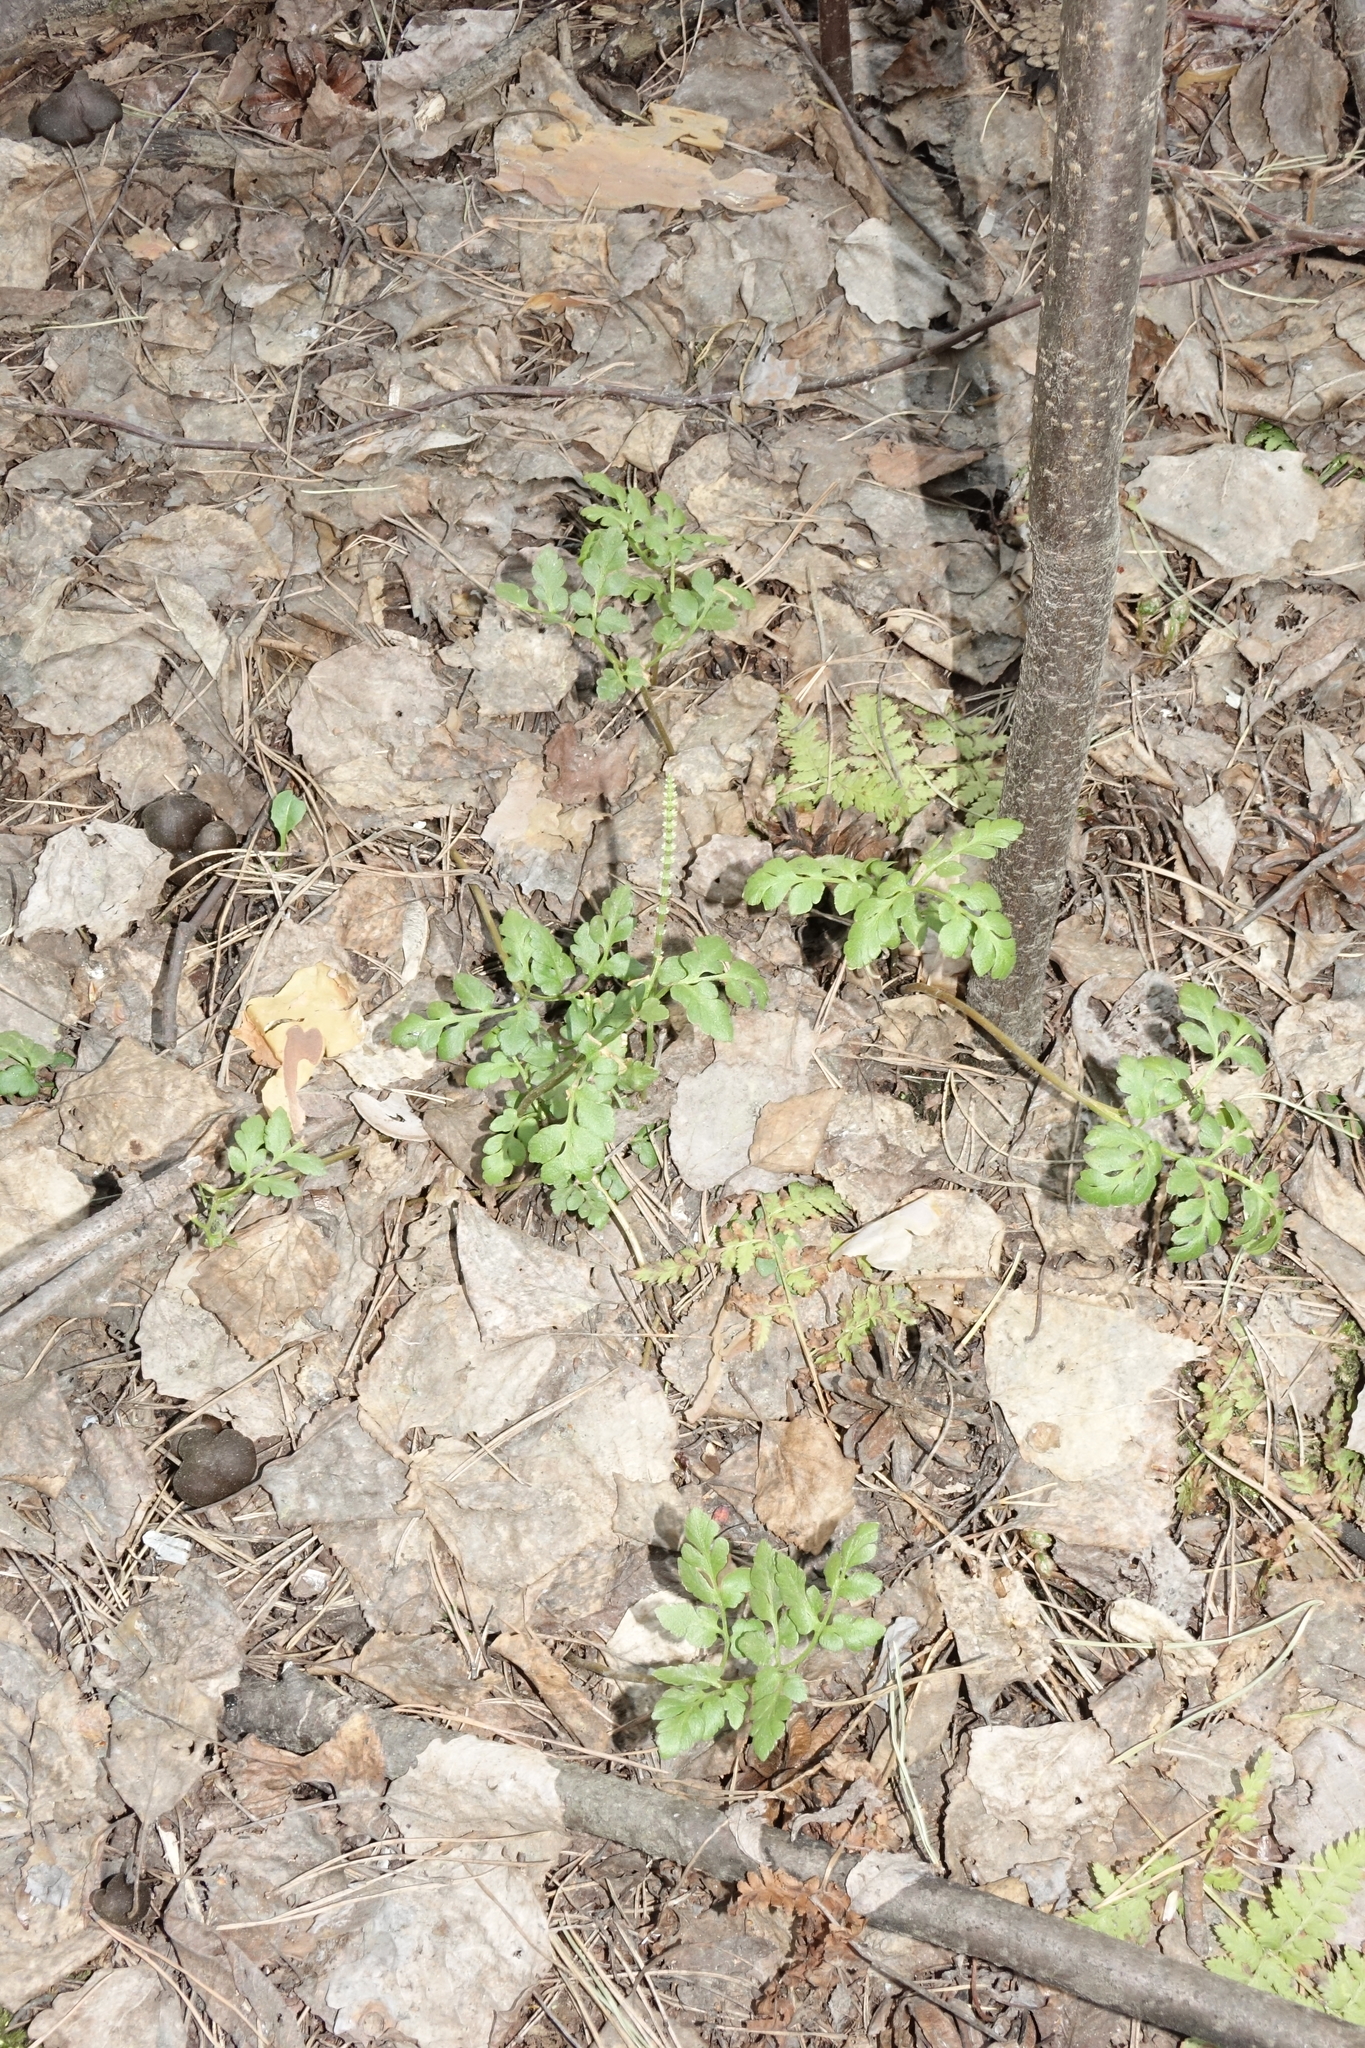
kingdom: Plantae
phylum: Tracheophyta
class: Polypodiopsida
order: Ophioglossales
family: Ophioglossaceae
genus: Sceptridium
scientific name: Sceptridium multifidum
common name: Leathery grape fern
